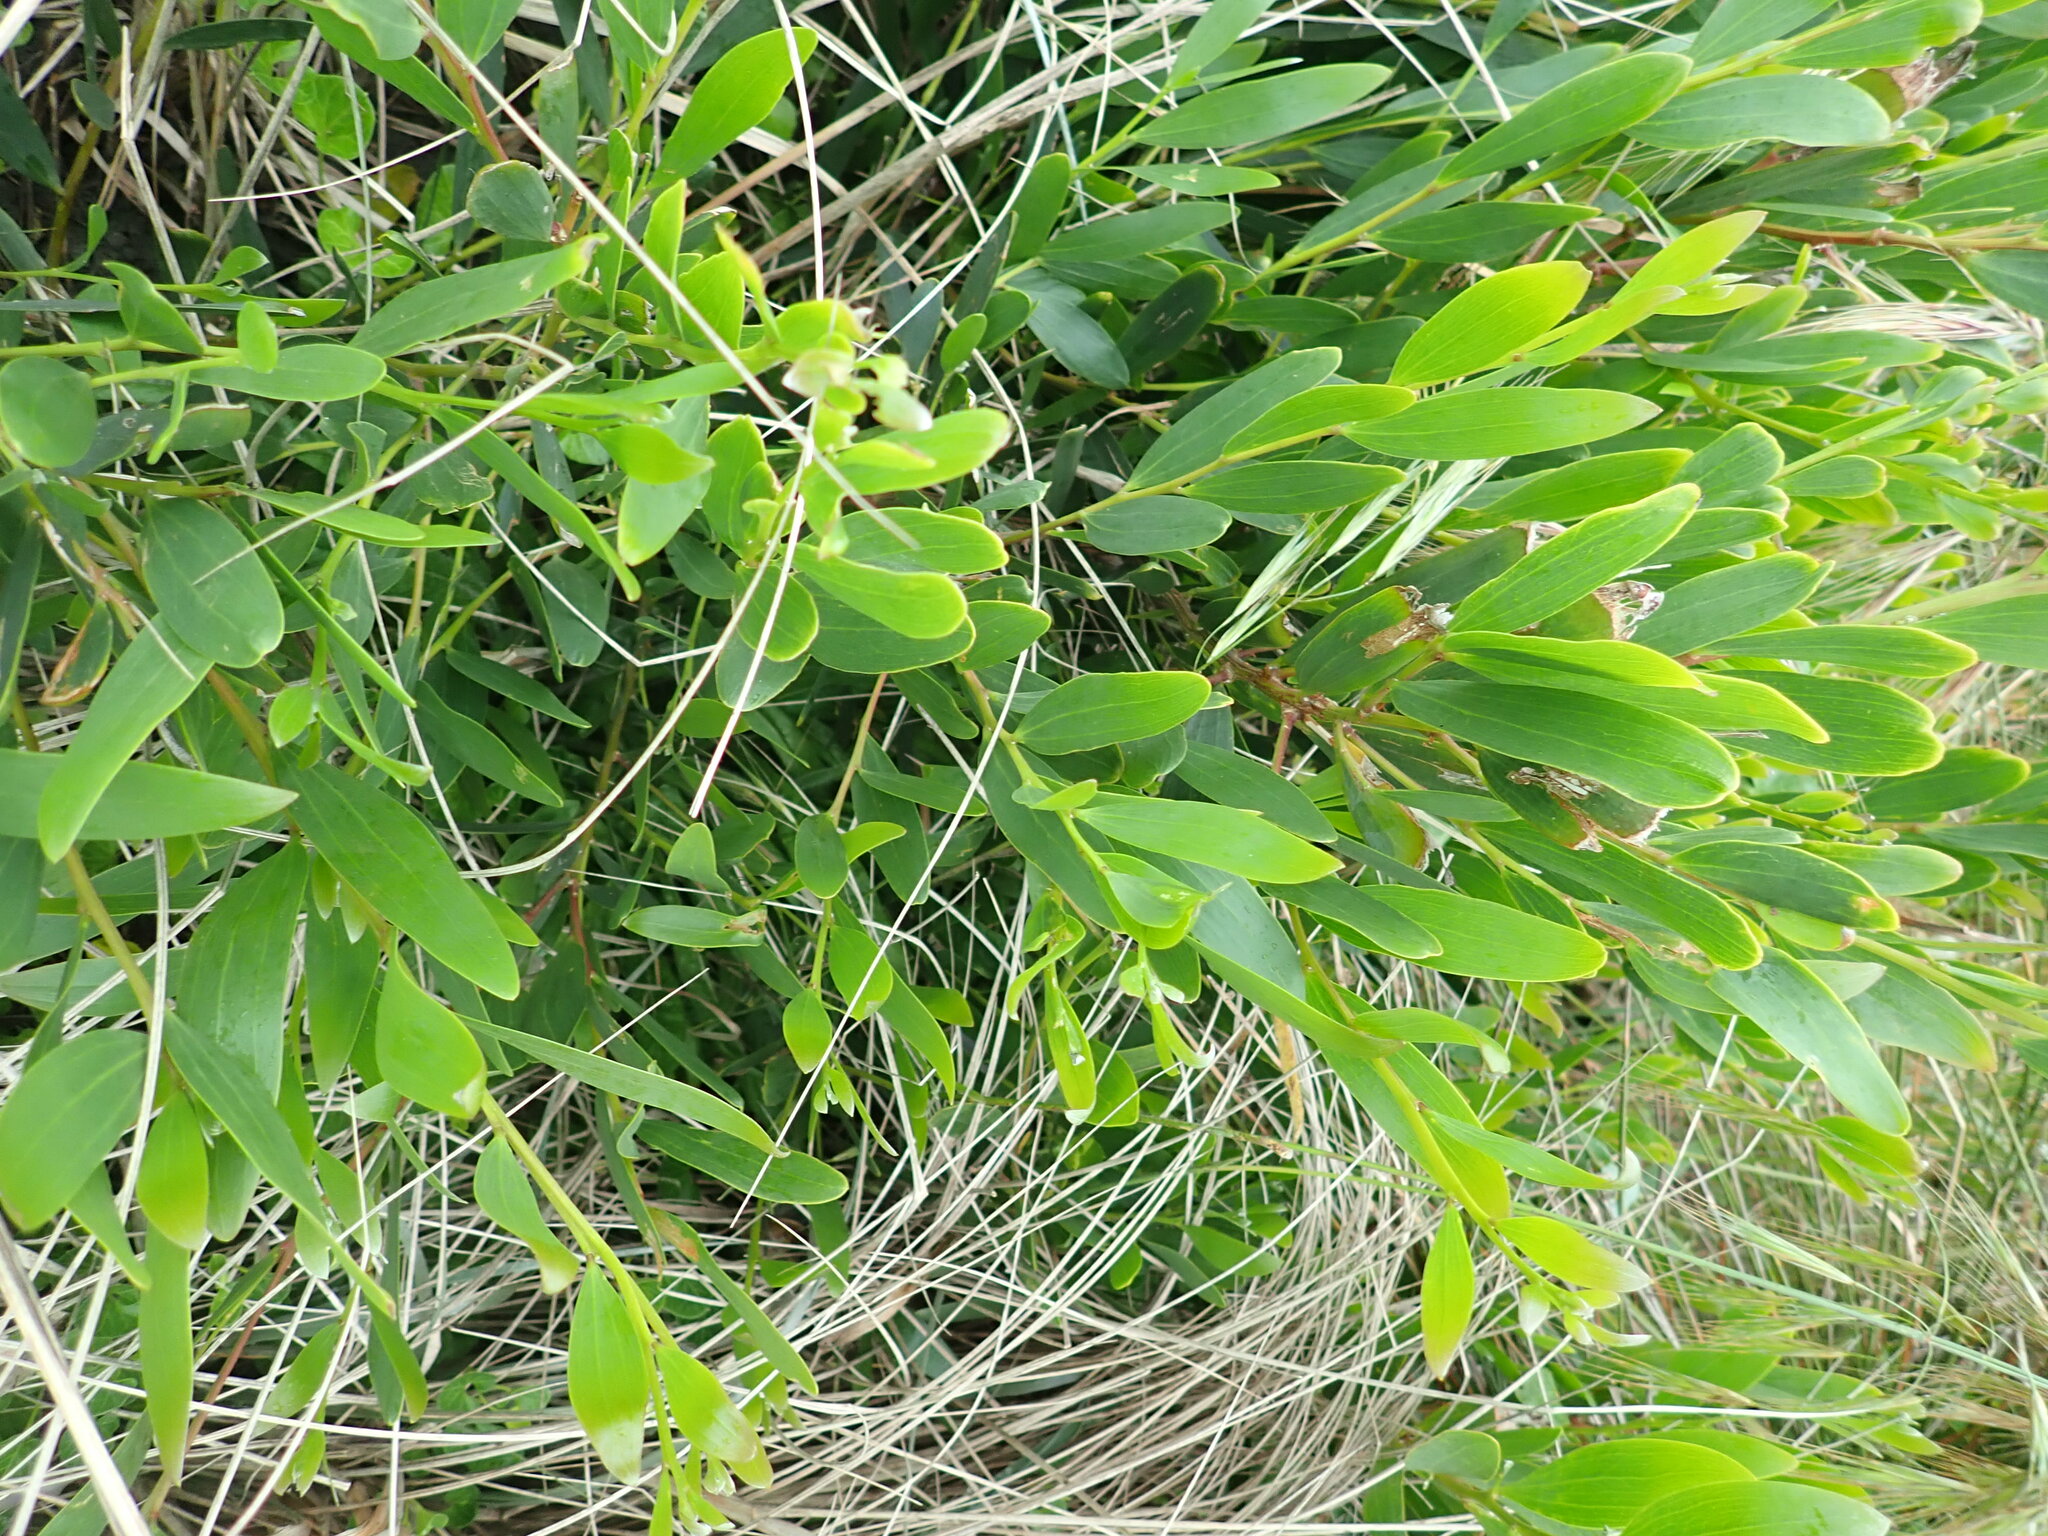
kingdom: Plantae
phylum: Tracheophyta
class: Magnoliopsida
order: Fabales
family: Fabaceae
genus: Acacia
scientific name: Acacia longifolia
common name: Sydney golden wattle
